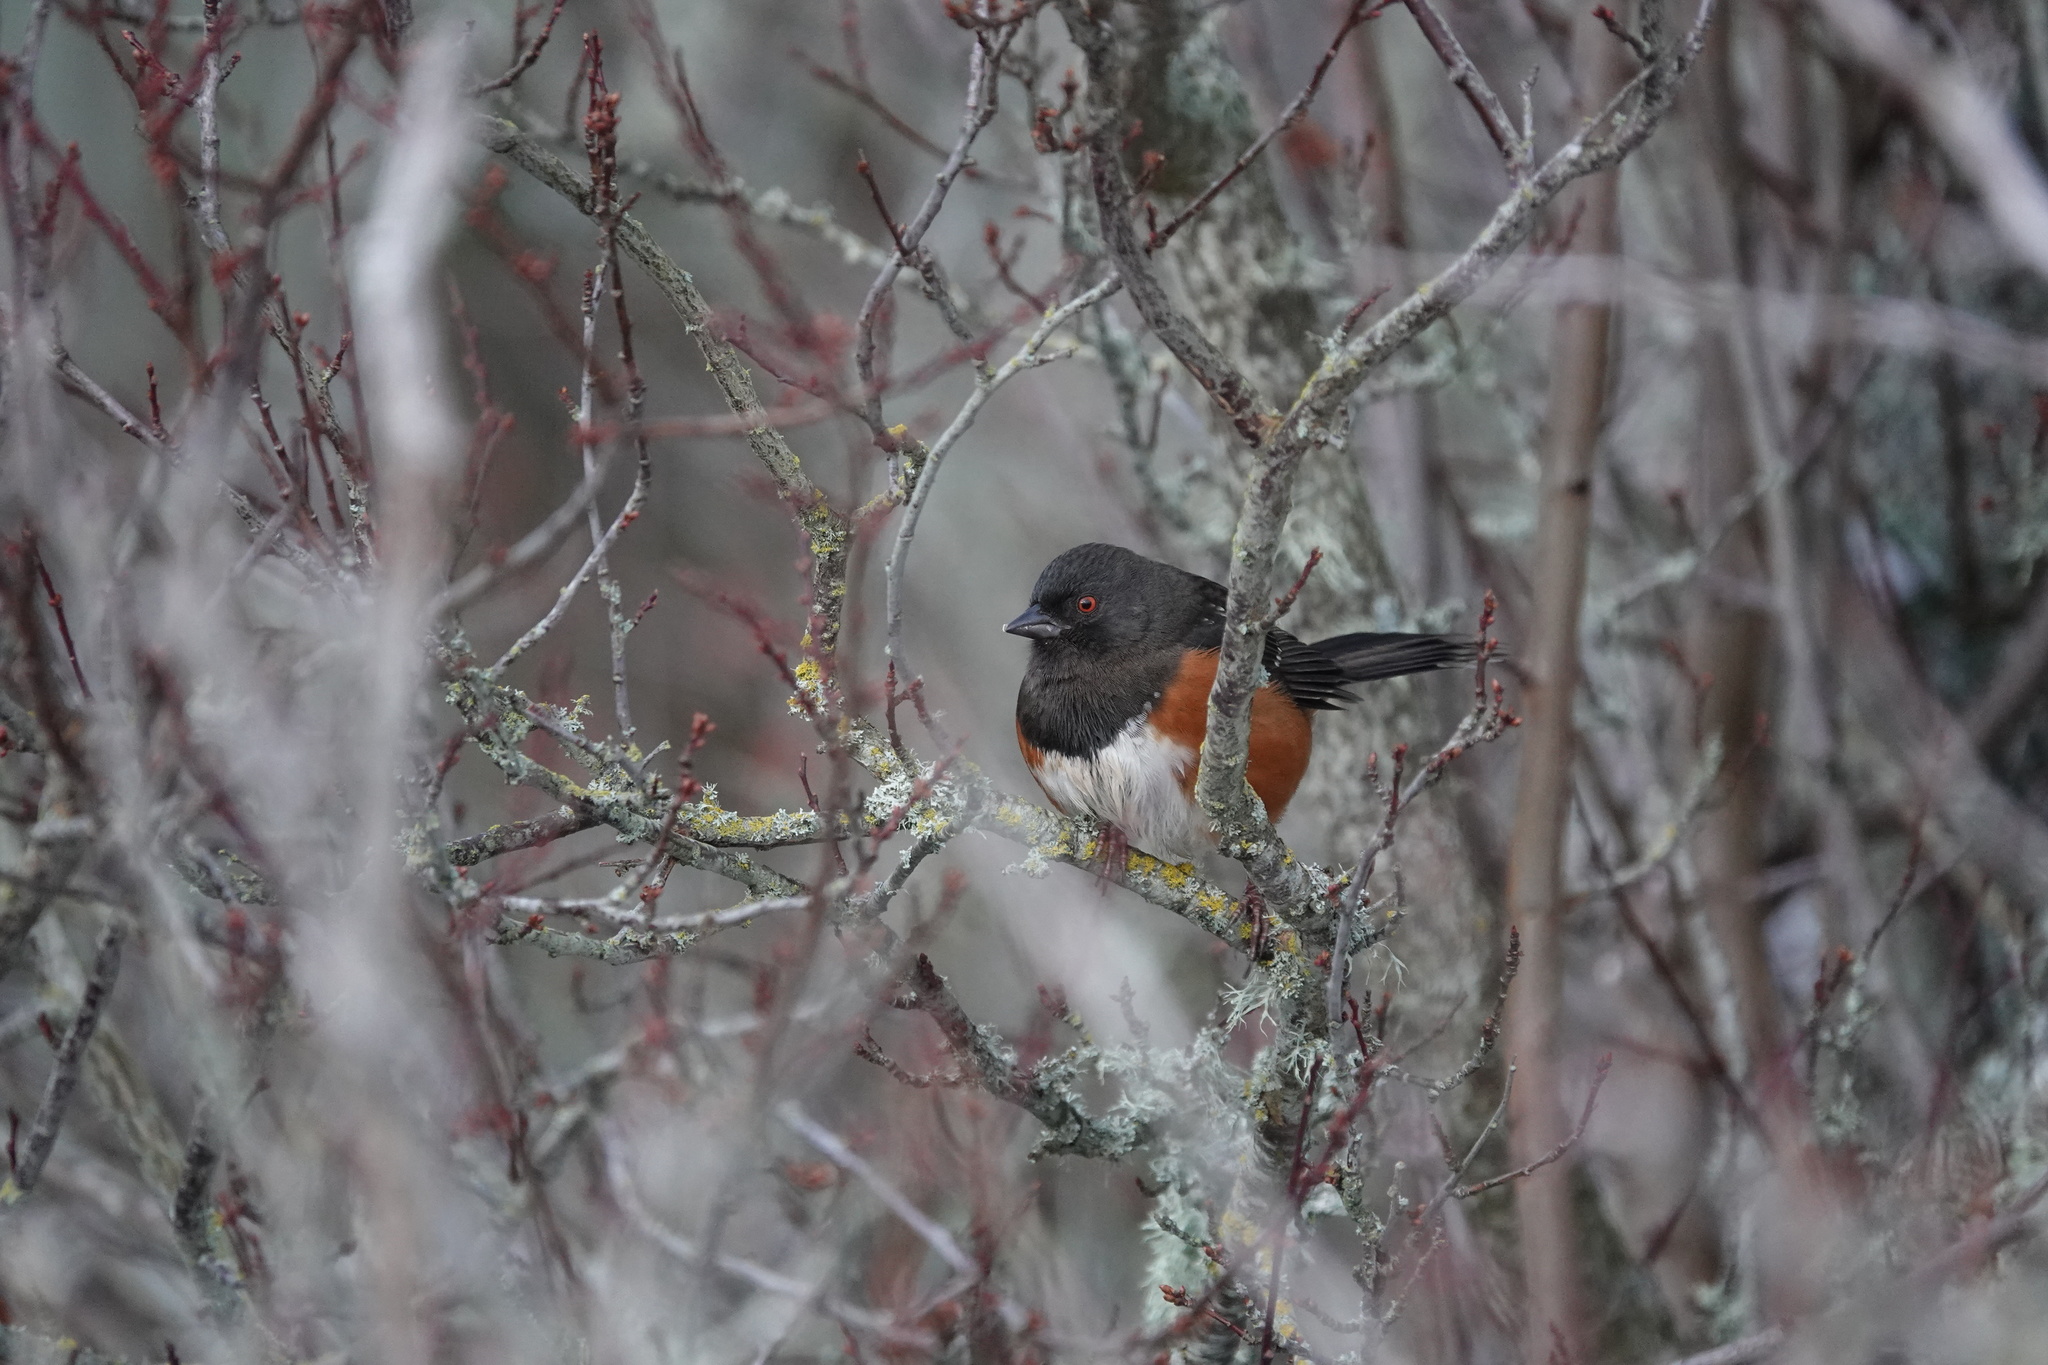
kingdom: Animalia
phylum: Chordata
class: Aves
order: Passeriformes
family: Passerellidae
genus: Pipilo
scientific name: Pipilo maculatus
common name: Spotted towhee
